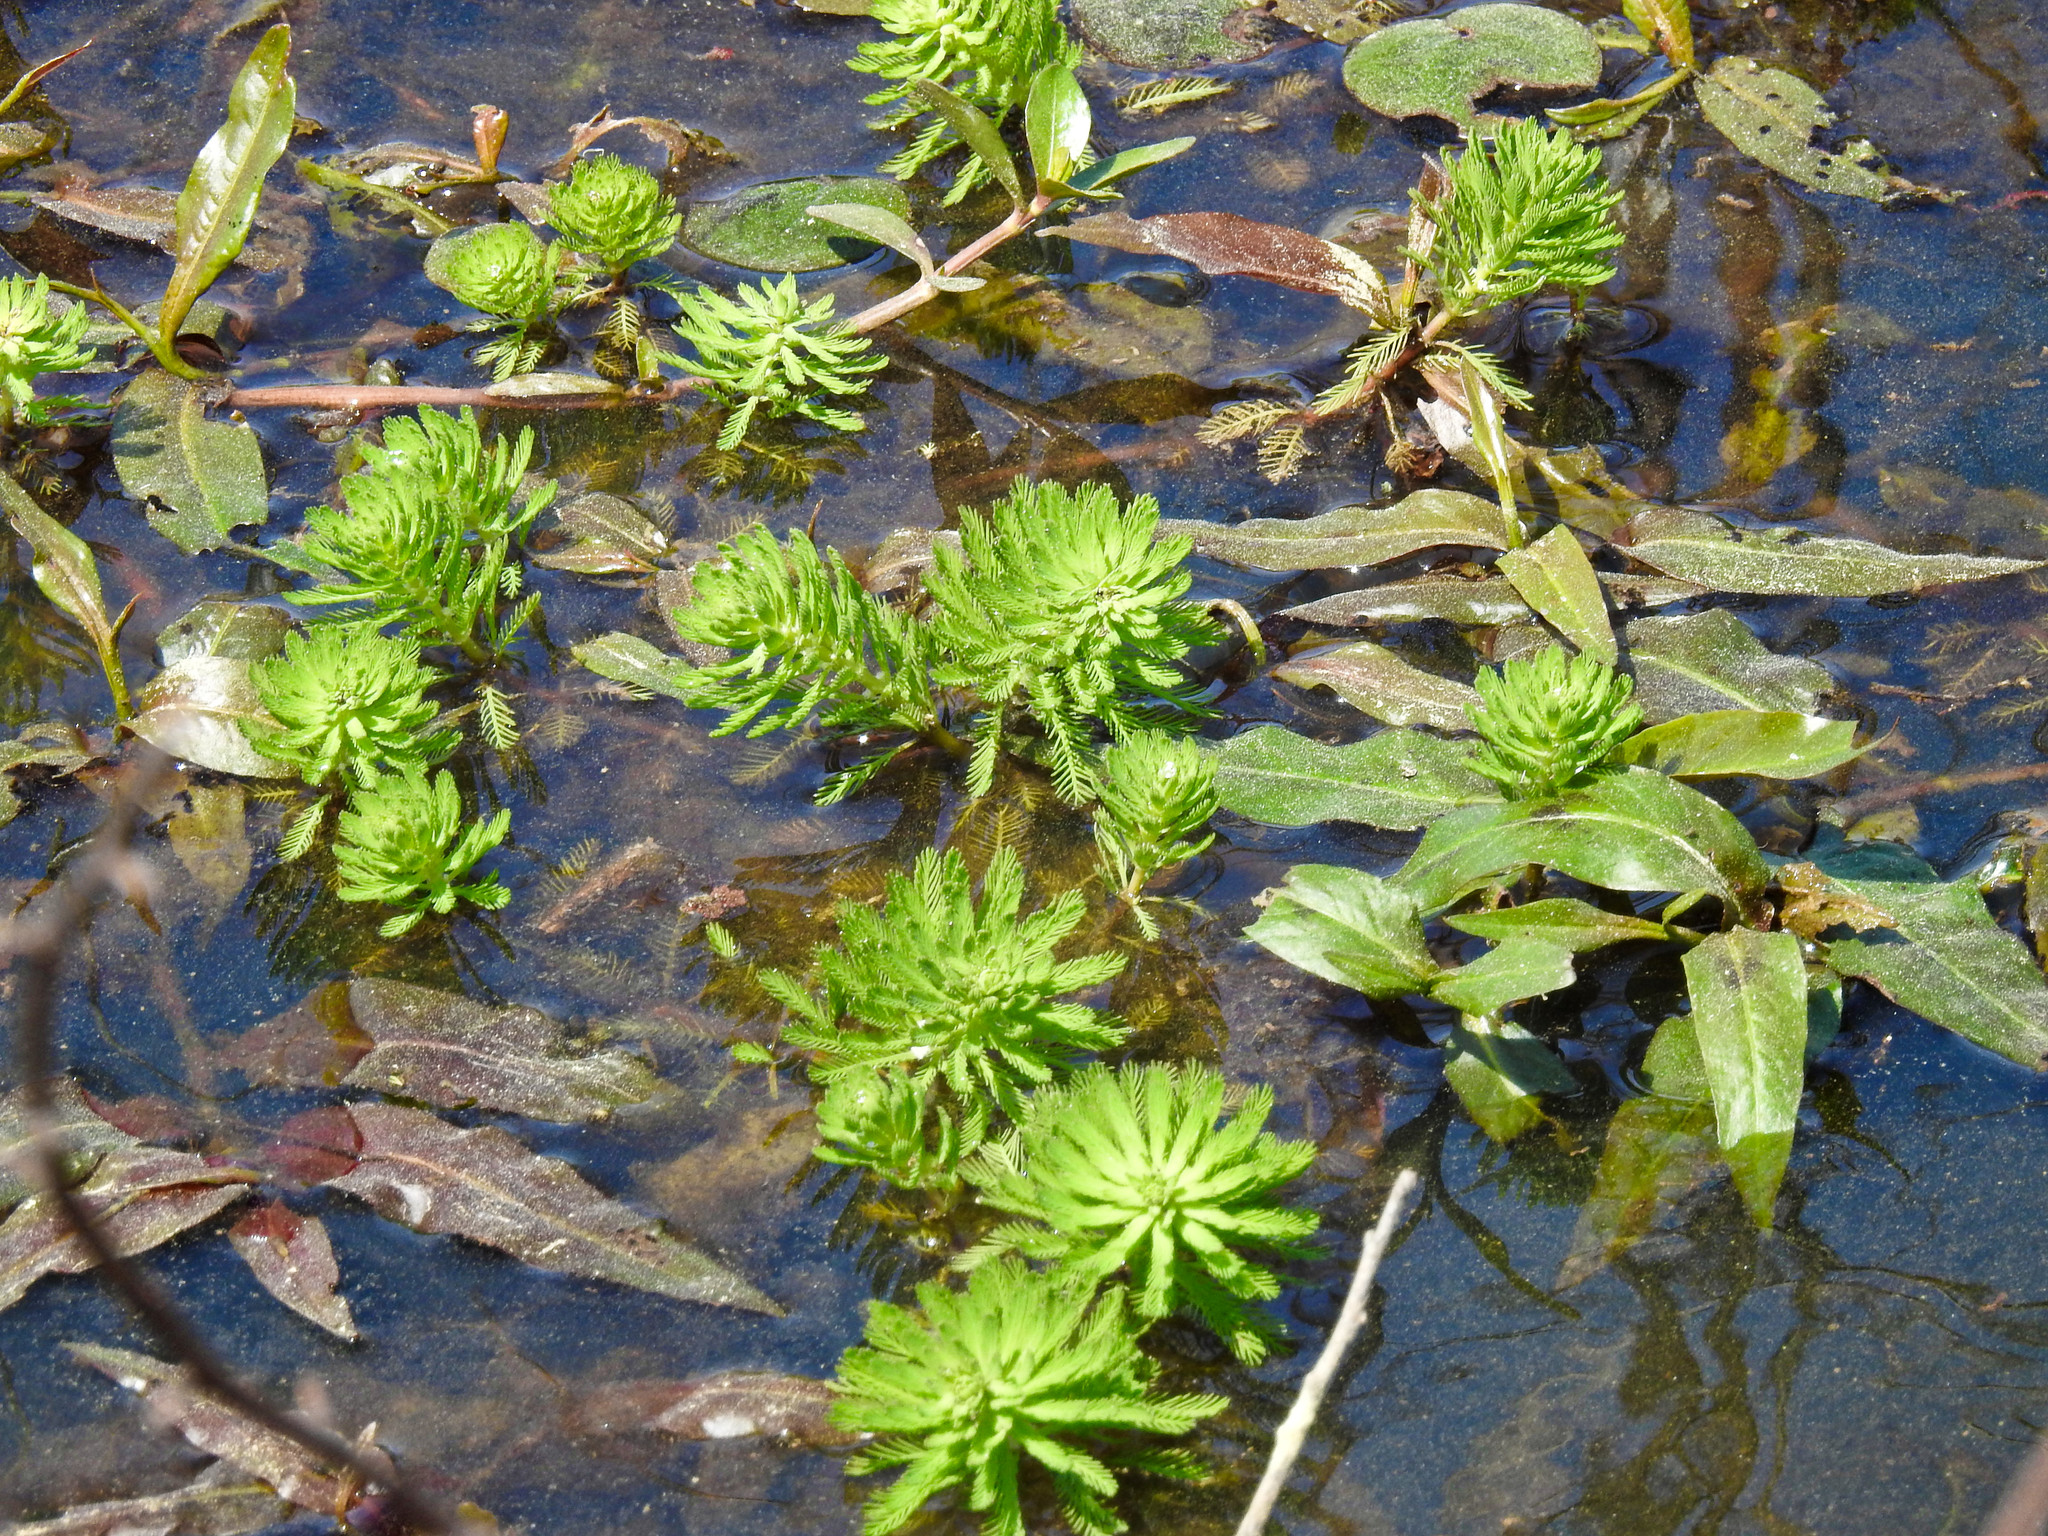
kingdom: Plantae
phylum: Tracheophyta
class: Magnoliopsida
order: Saxifragales
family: Haloragaceae
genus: Myriophyllum
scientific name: Myriophyllum aquaticum
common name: Parrot's feather
